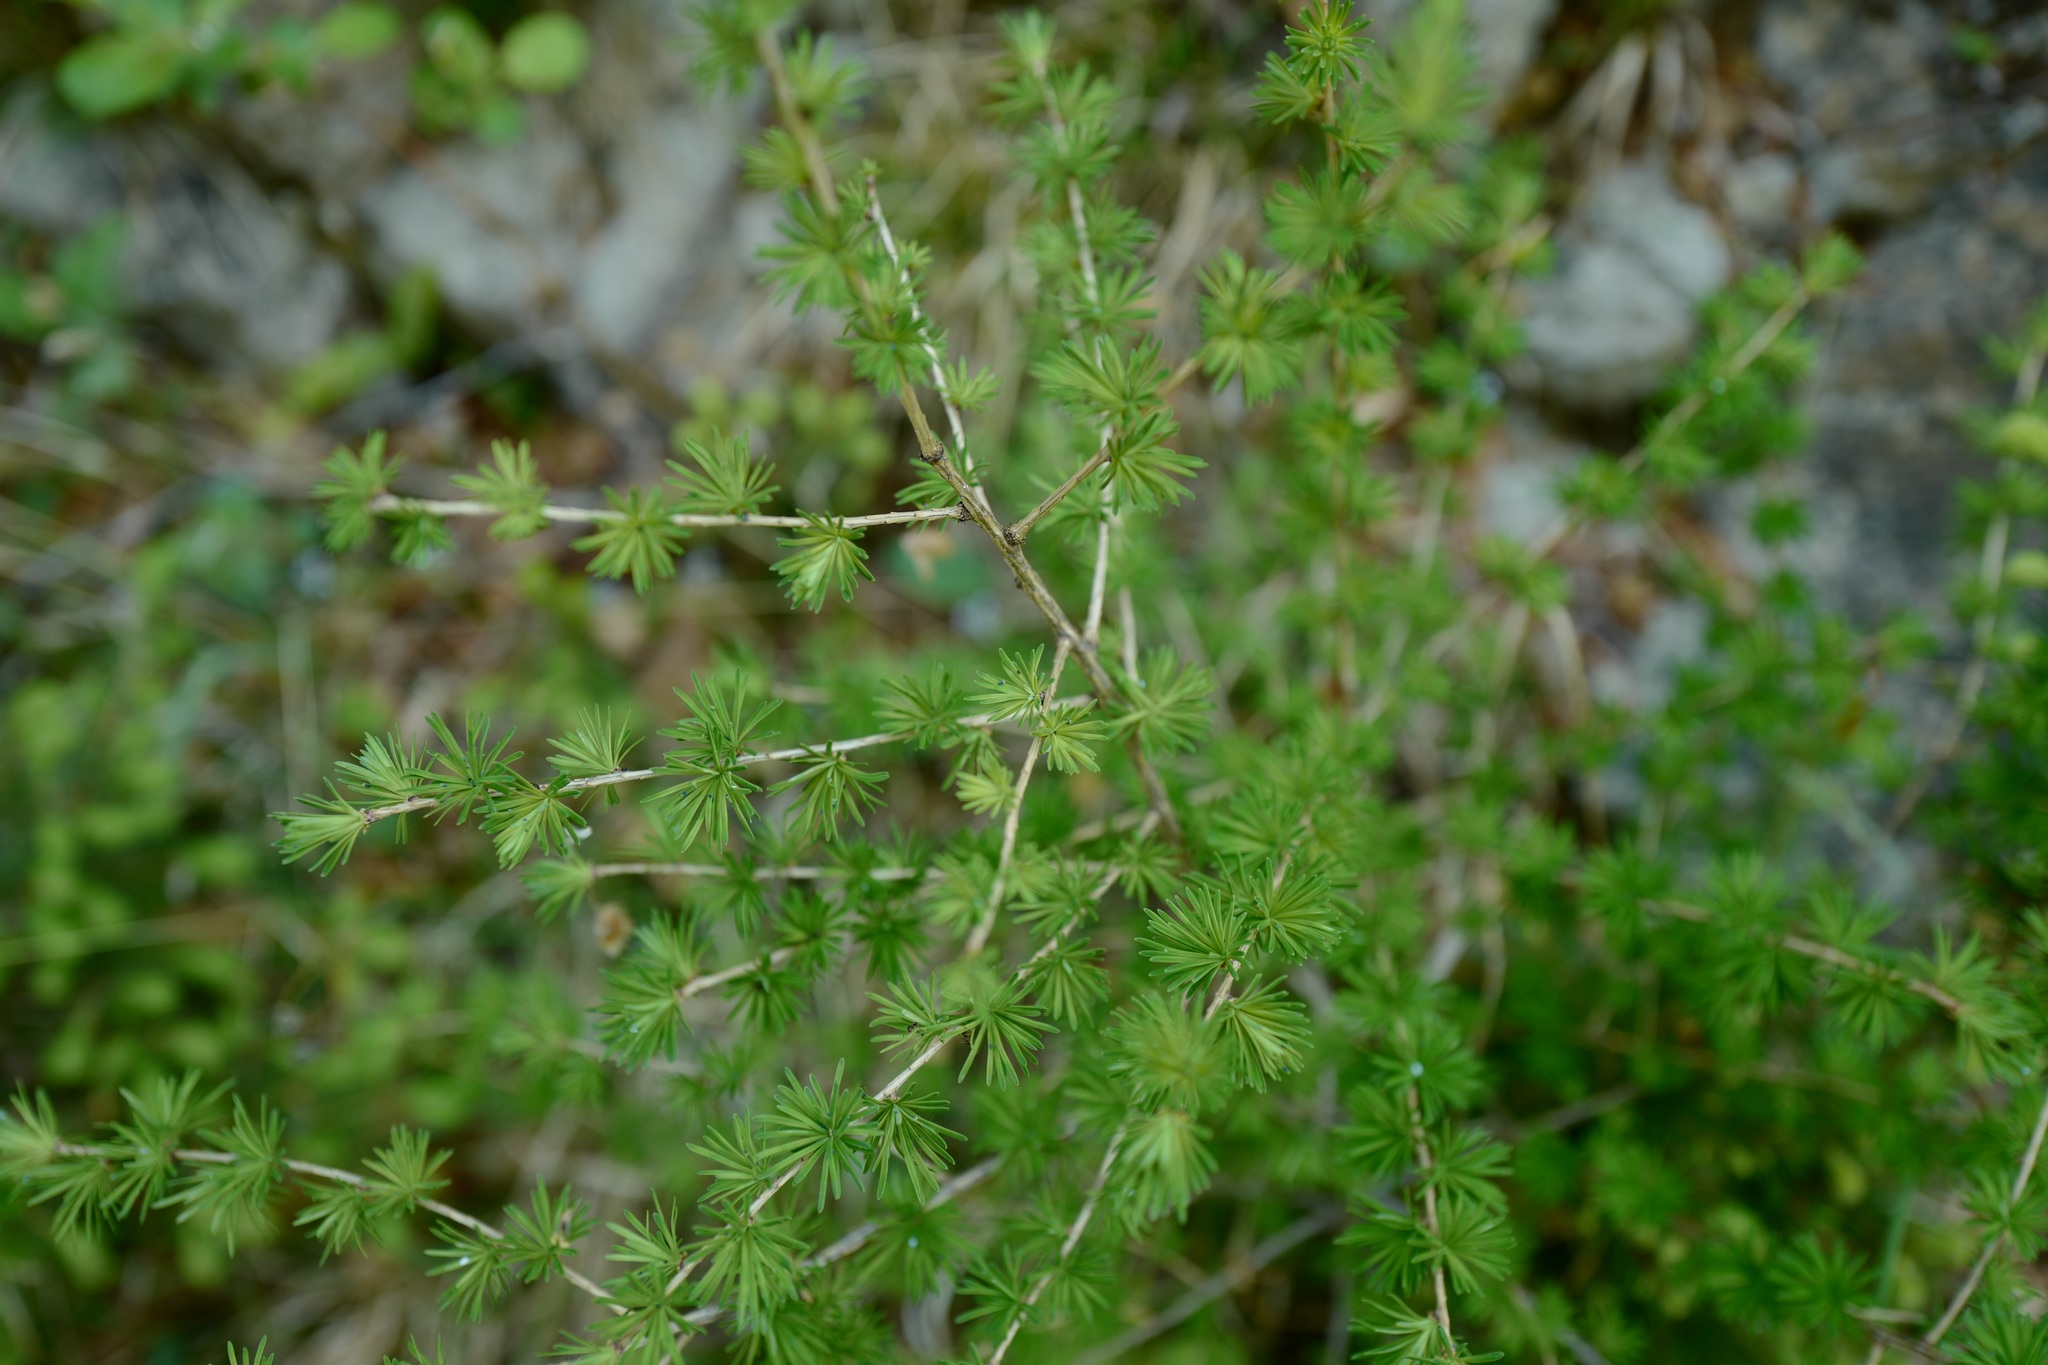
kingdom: Plantae
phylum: Tracheophyta
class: Pinopsida
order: Pinales
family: Pinaceae
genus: Larix
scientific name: Larix decidua
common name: European larch
